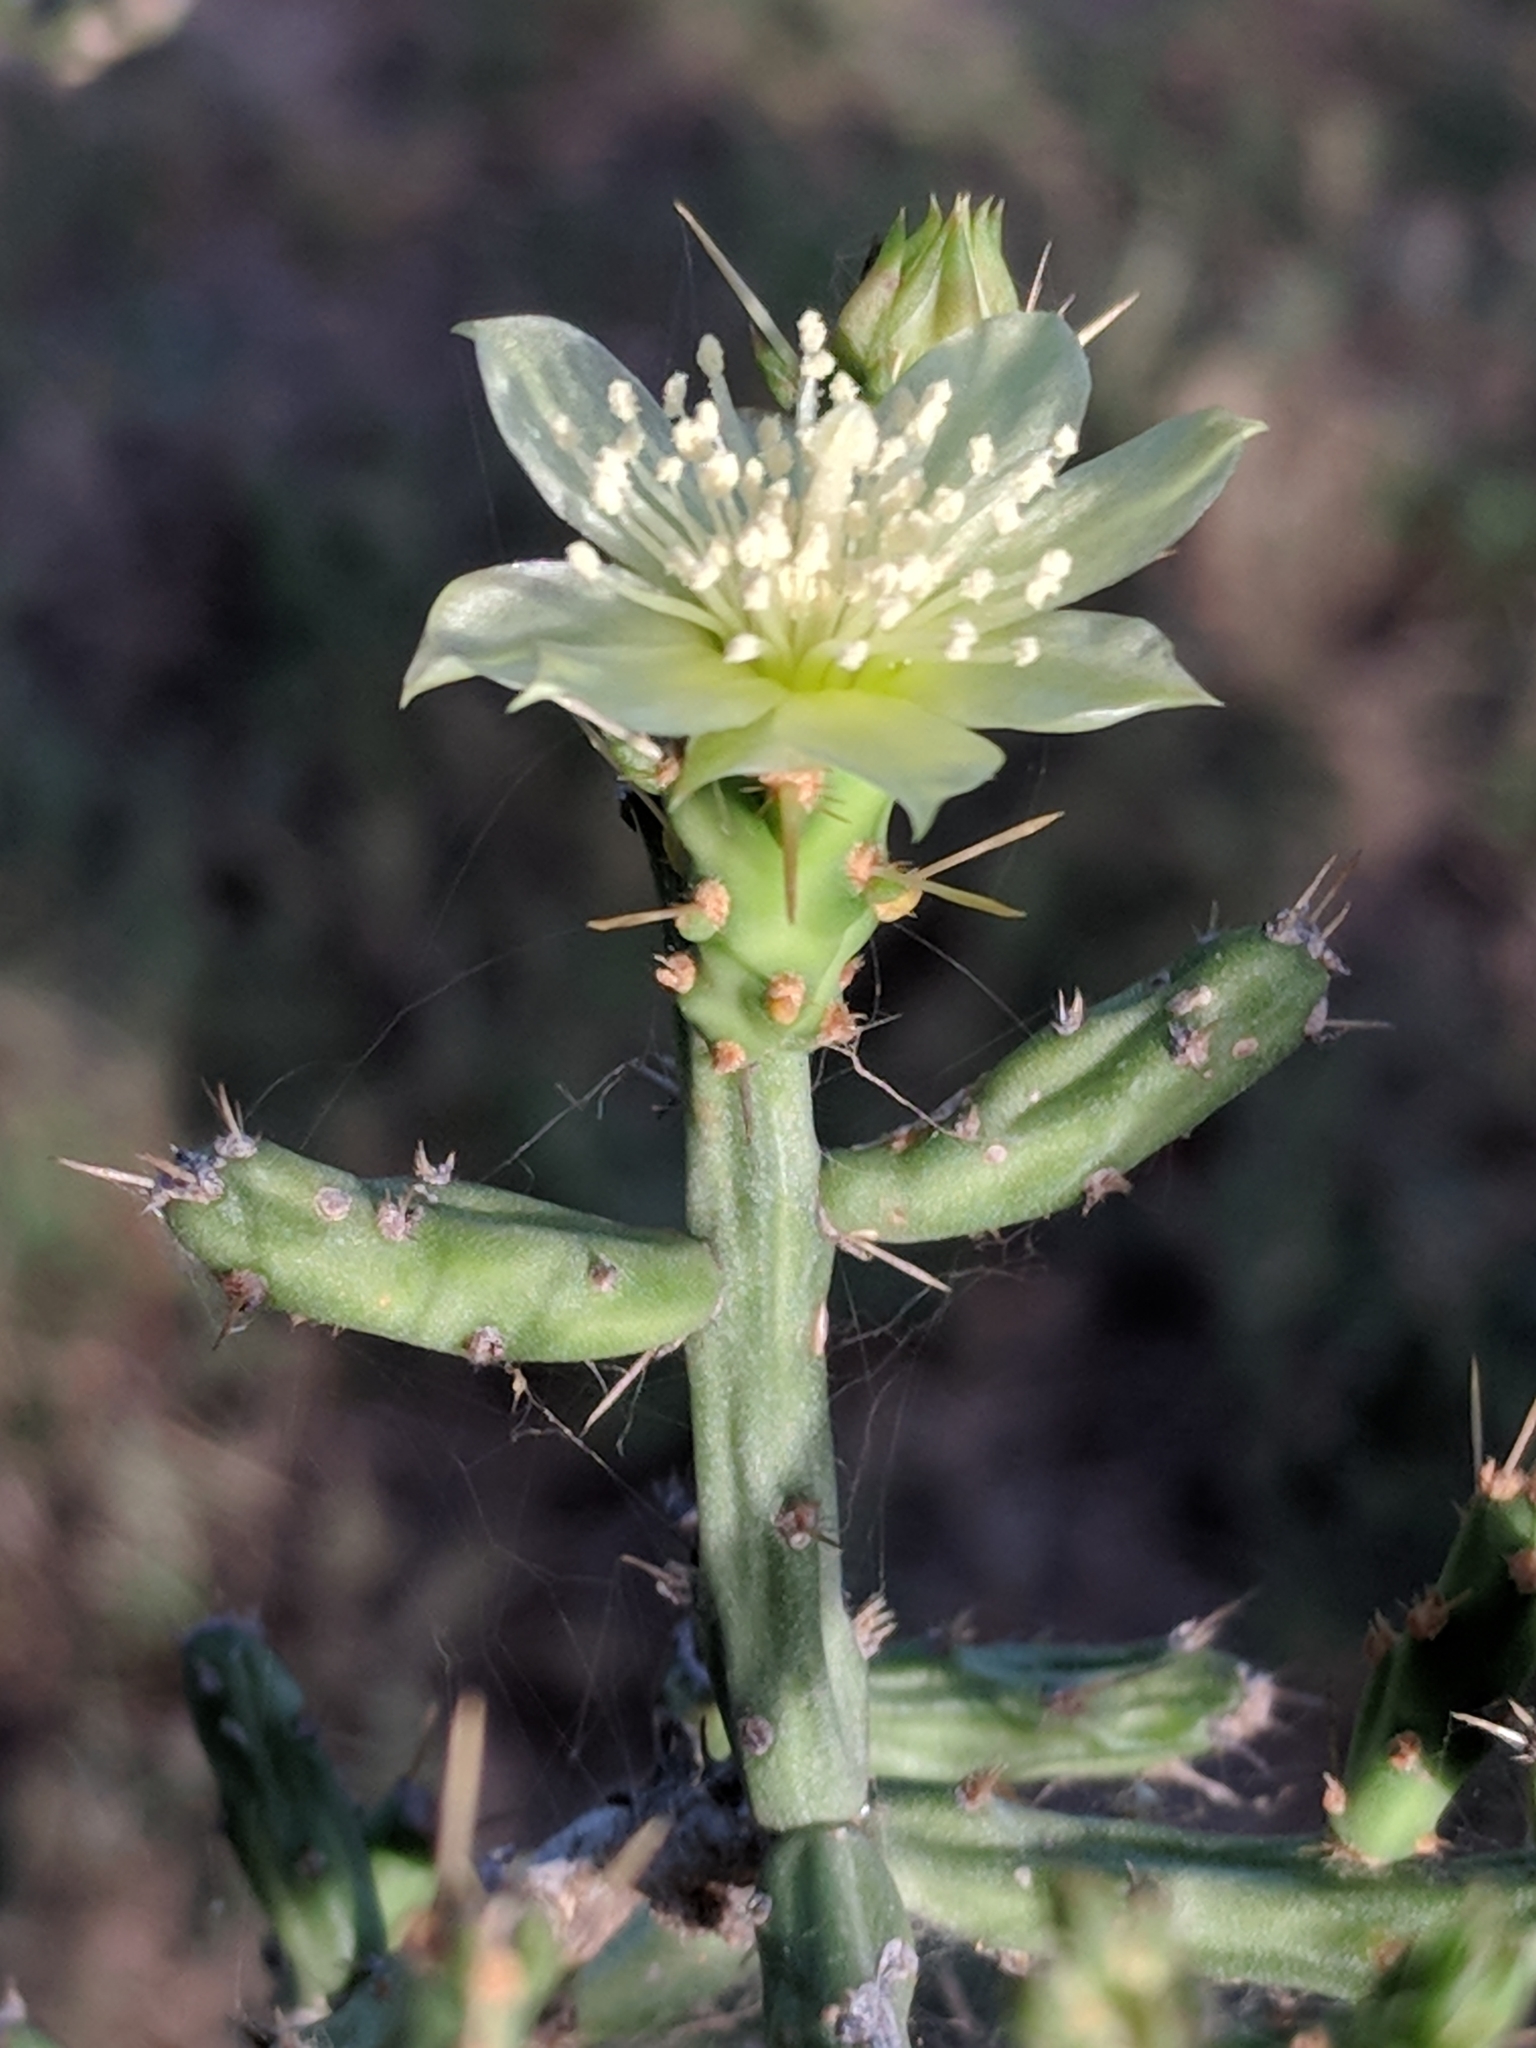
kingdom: Plantae
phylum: Tracheophyta
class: Magnoliopsida
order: Caryophyllales
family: Cactaceae
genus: Cylindropuntia
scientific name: Cylindropuntia leptocaulis
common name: Christmas cactus
